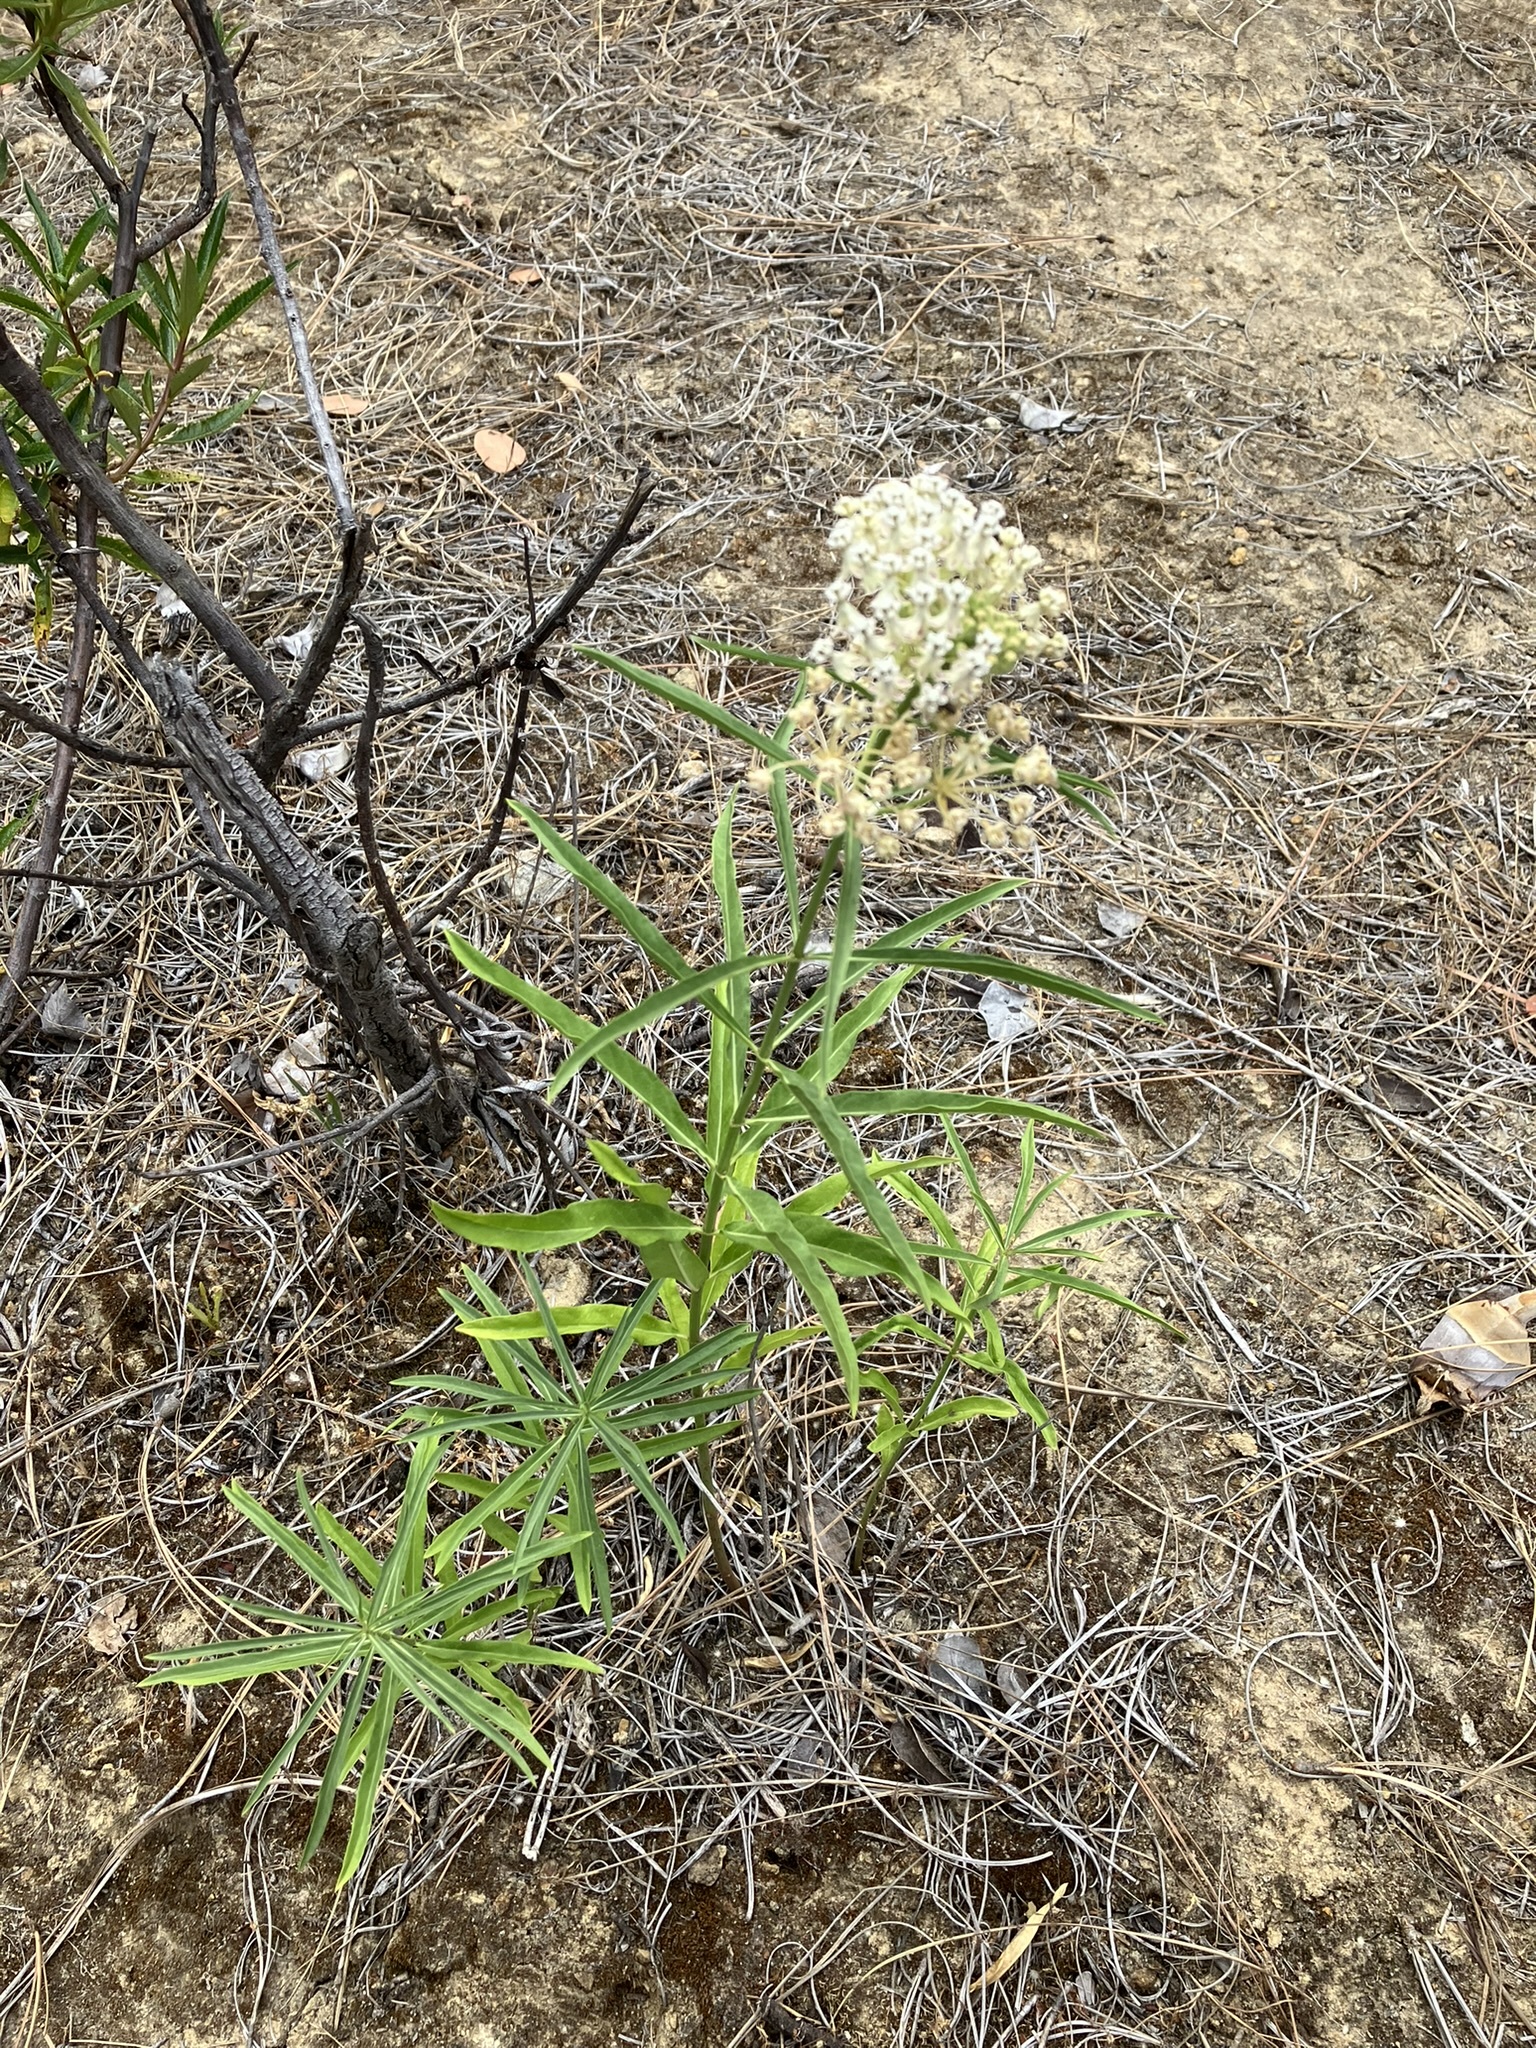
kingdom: Plantae
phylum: Tracheophyta
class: Magnoliopsida
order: Gentianales
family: Apocynaceae
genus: Asclepias
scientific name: Asclepias fascicularis
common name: Mexican milkweed
